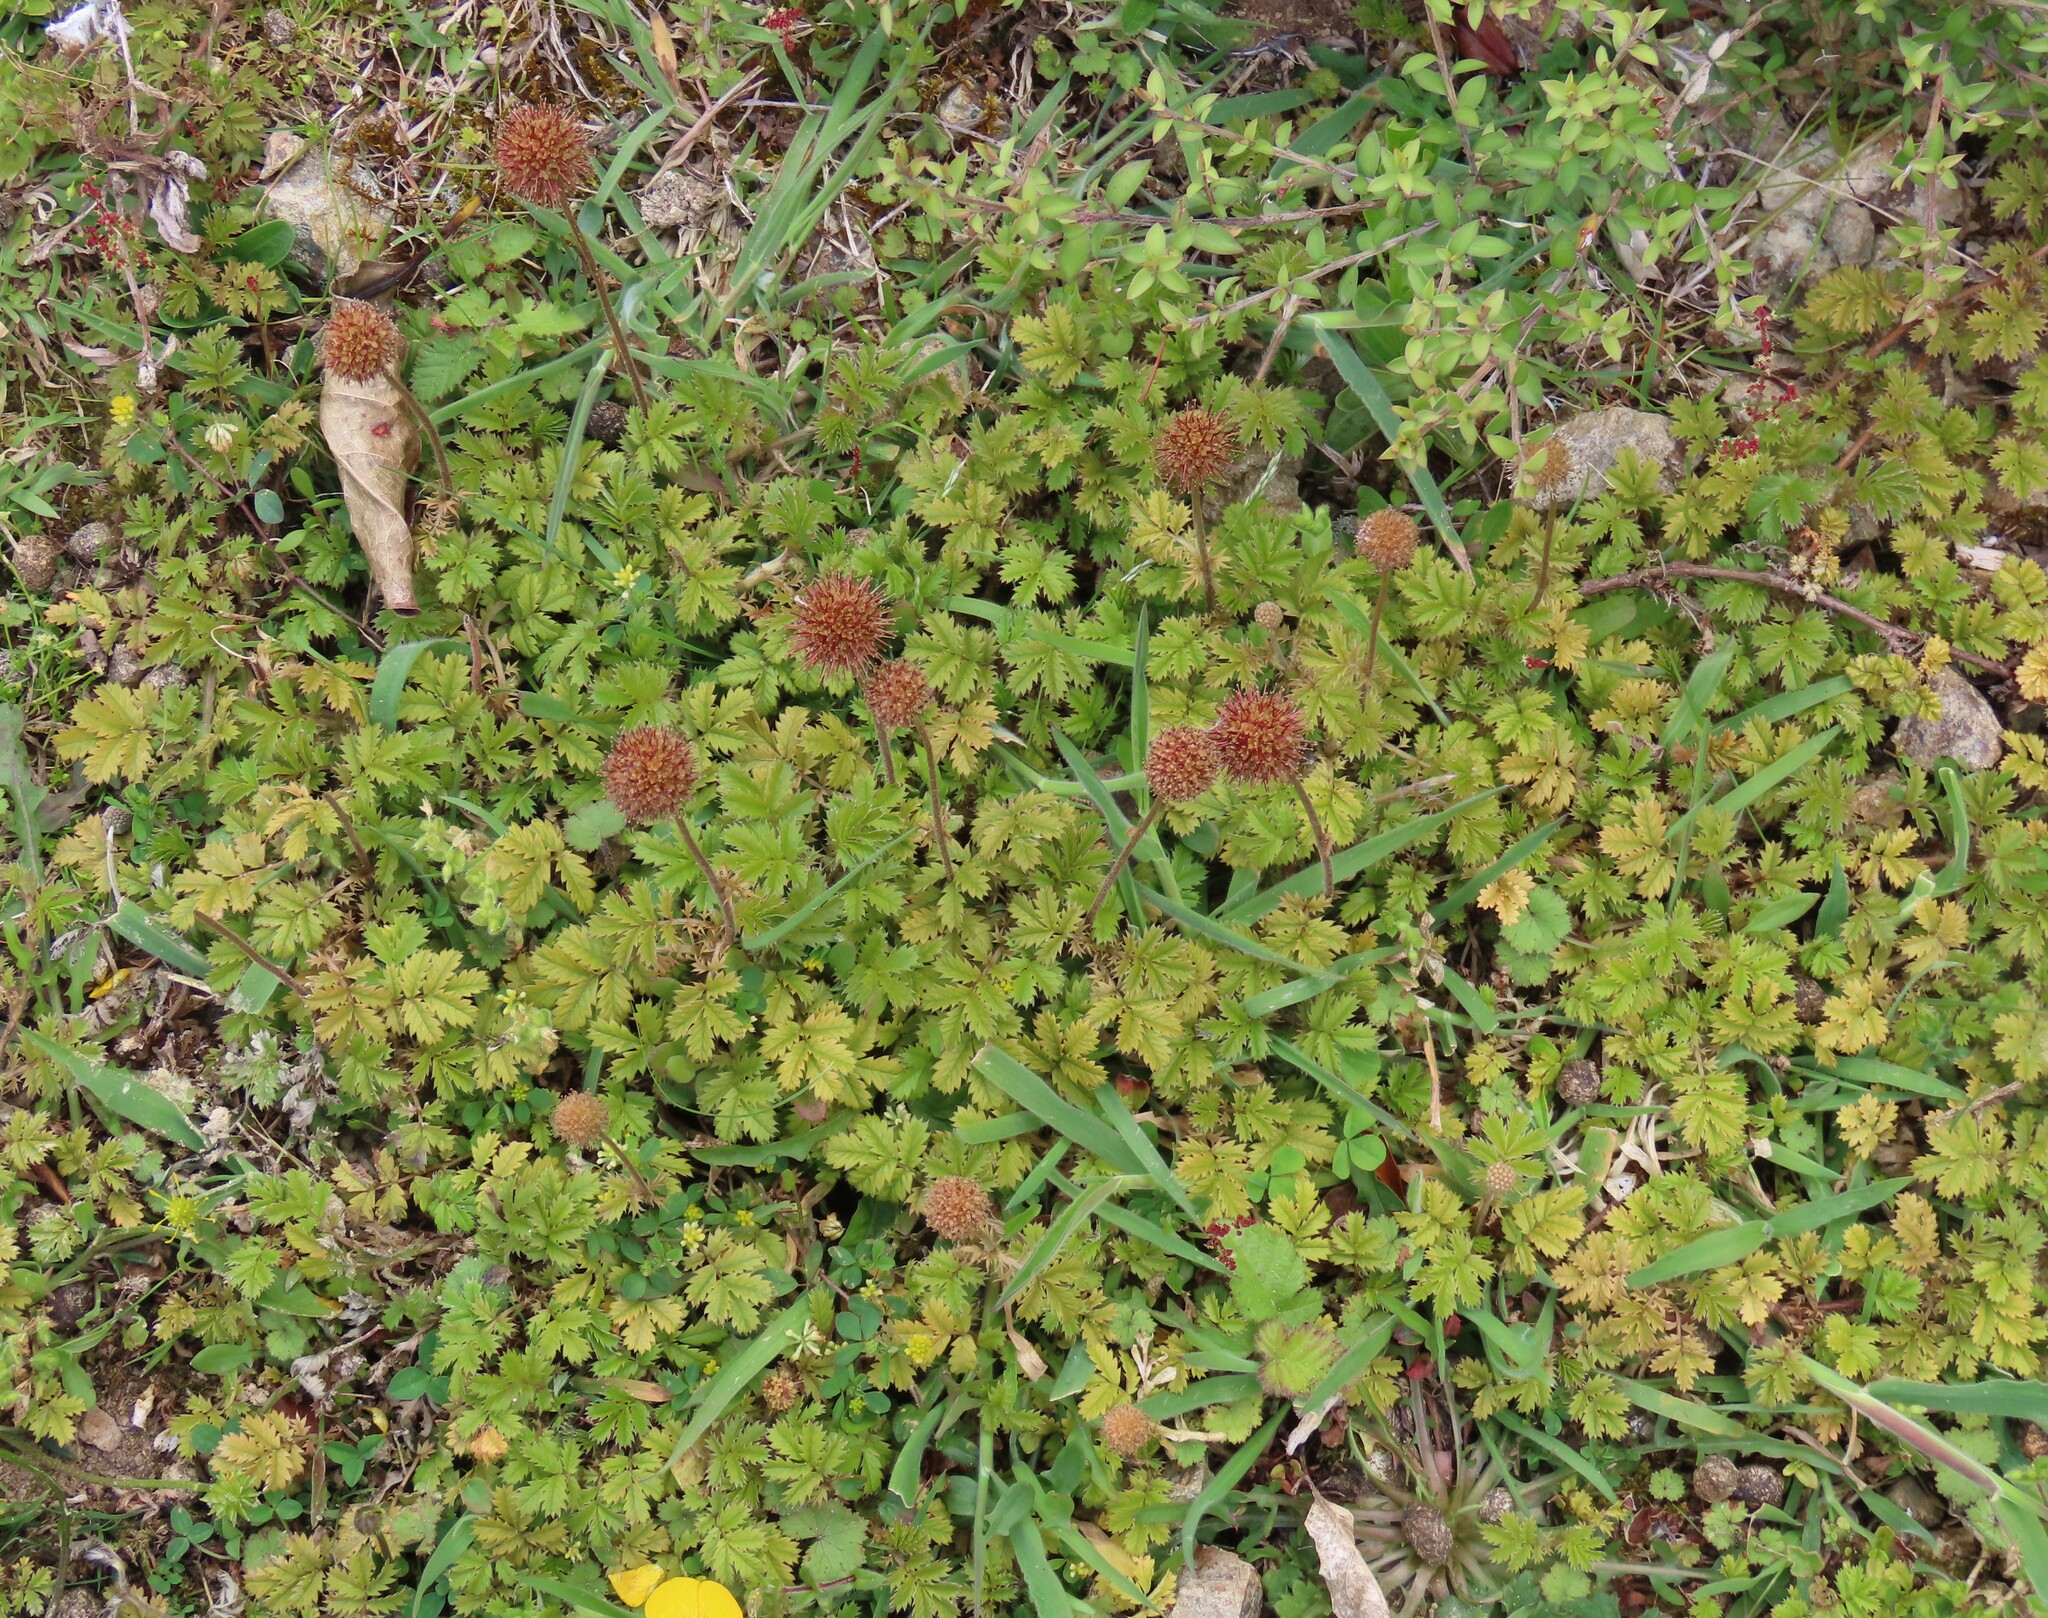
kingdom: Plantae
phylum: Tracheophyta
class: Magnoliopsida
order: Rosales
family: Rosaceae
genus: Acaena
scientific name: Acaena anserinifolia
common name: Bronze pirri-pirri-bur
